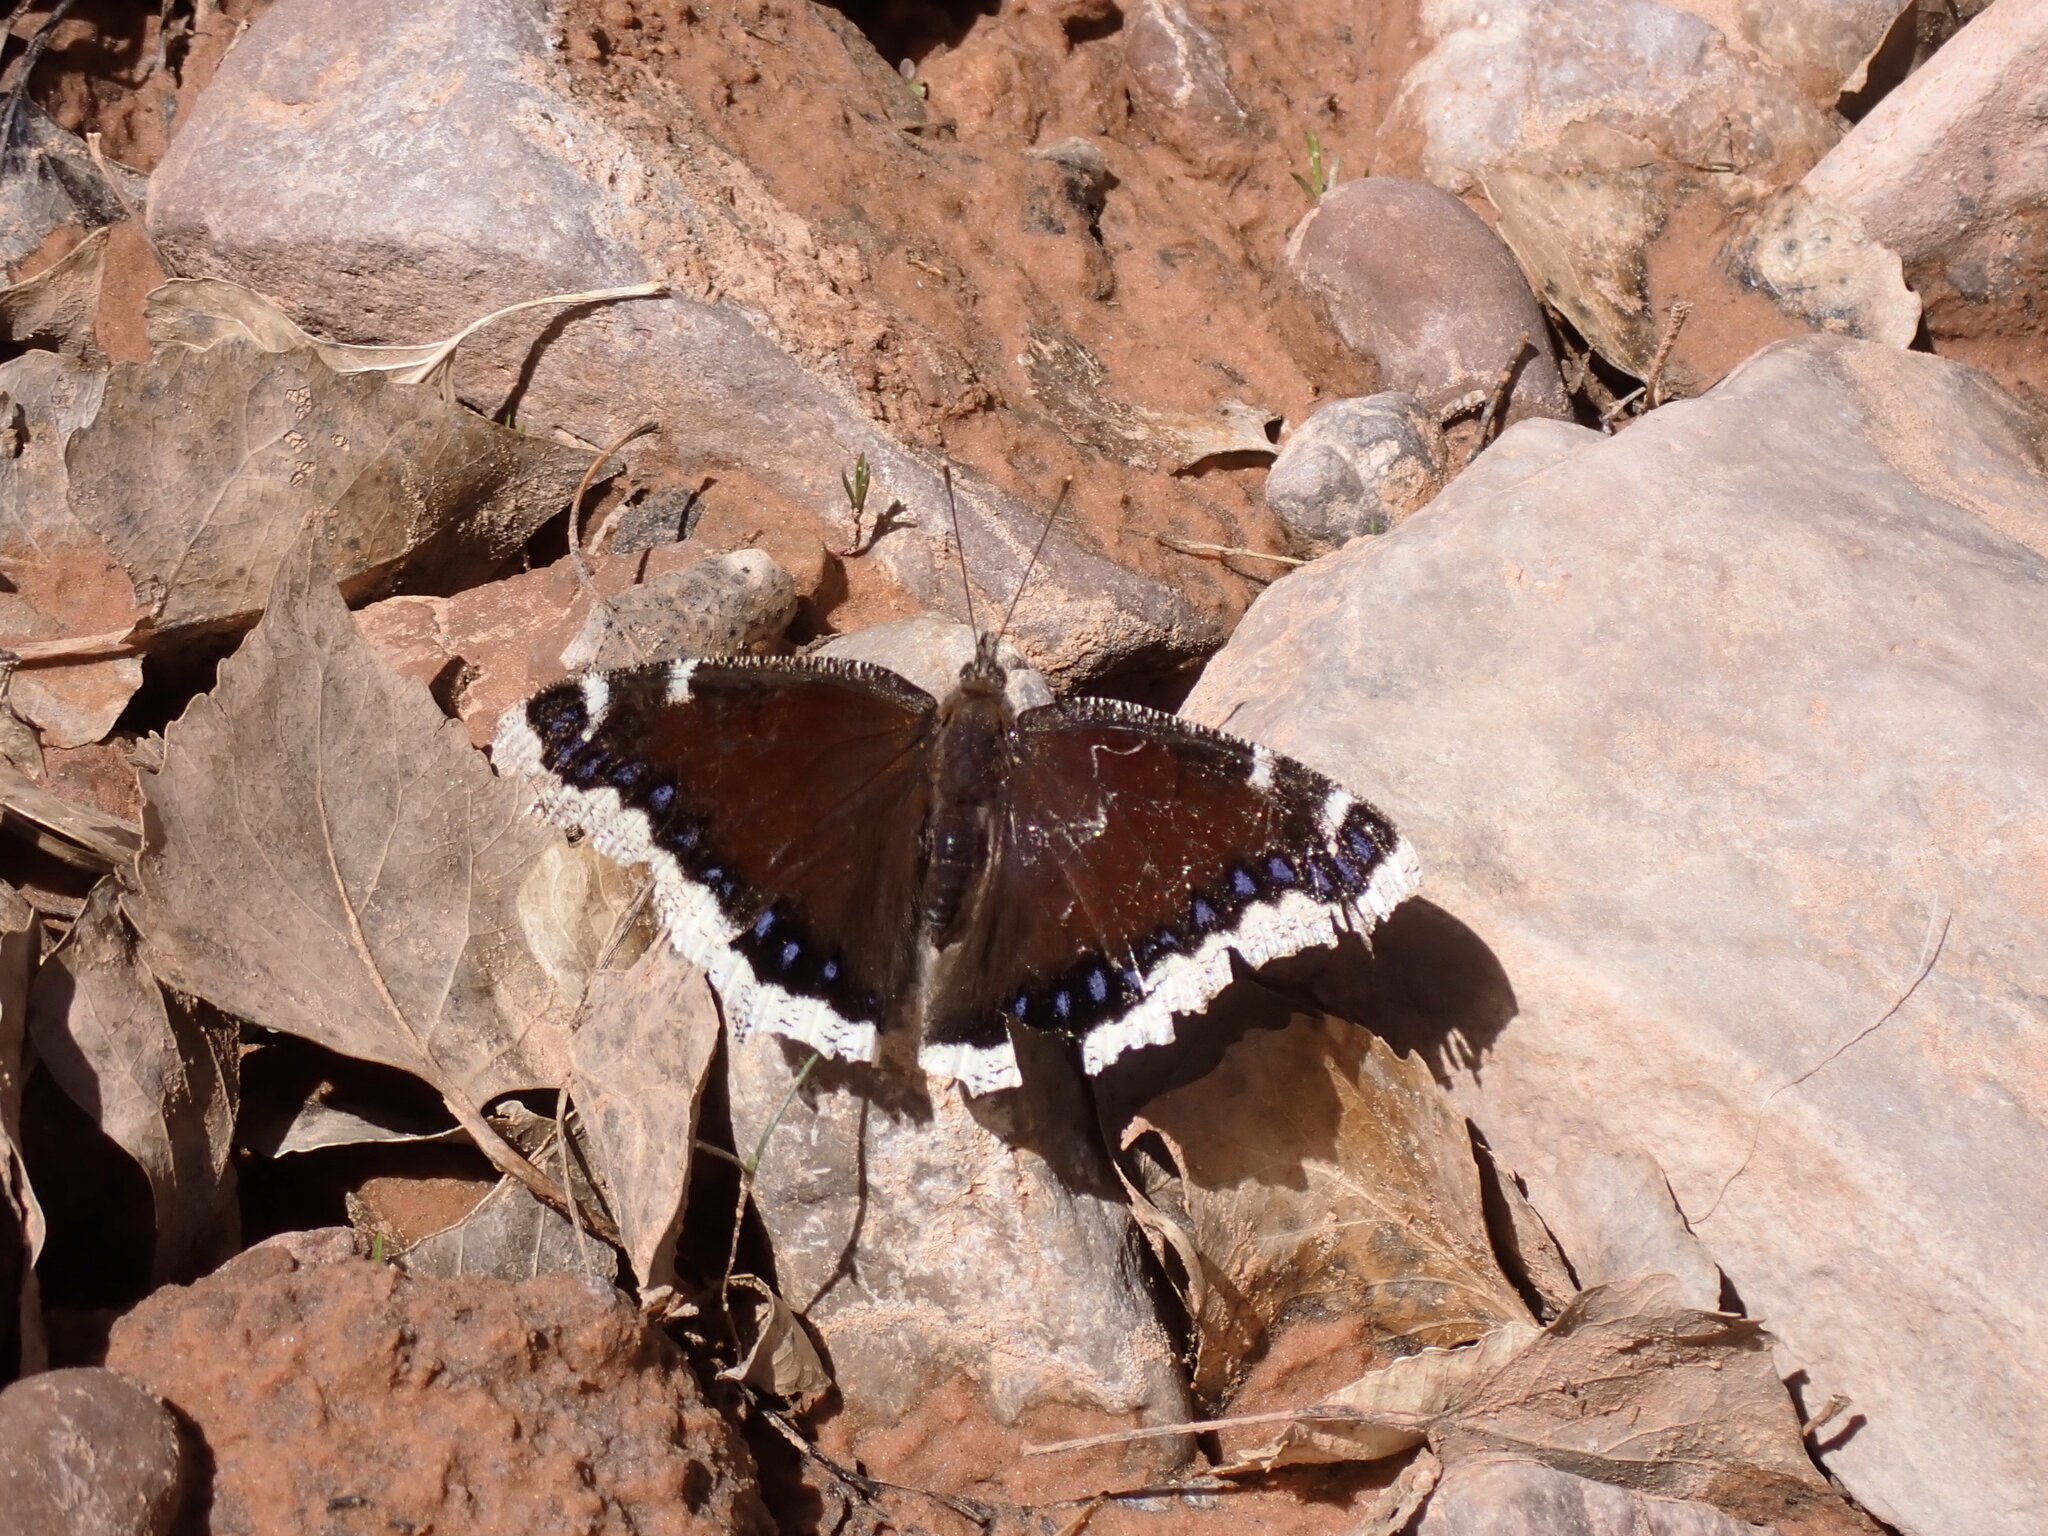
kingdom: Animalia
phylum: Arthropoda
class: Insecta
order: Lepidoptera
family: Nymphalidae
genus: Nymphalis
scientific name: Nymphalis antiopa
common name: Camberwell beauty
